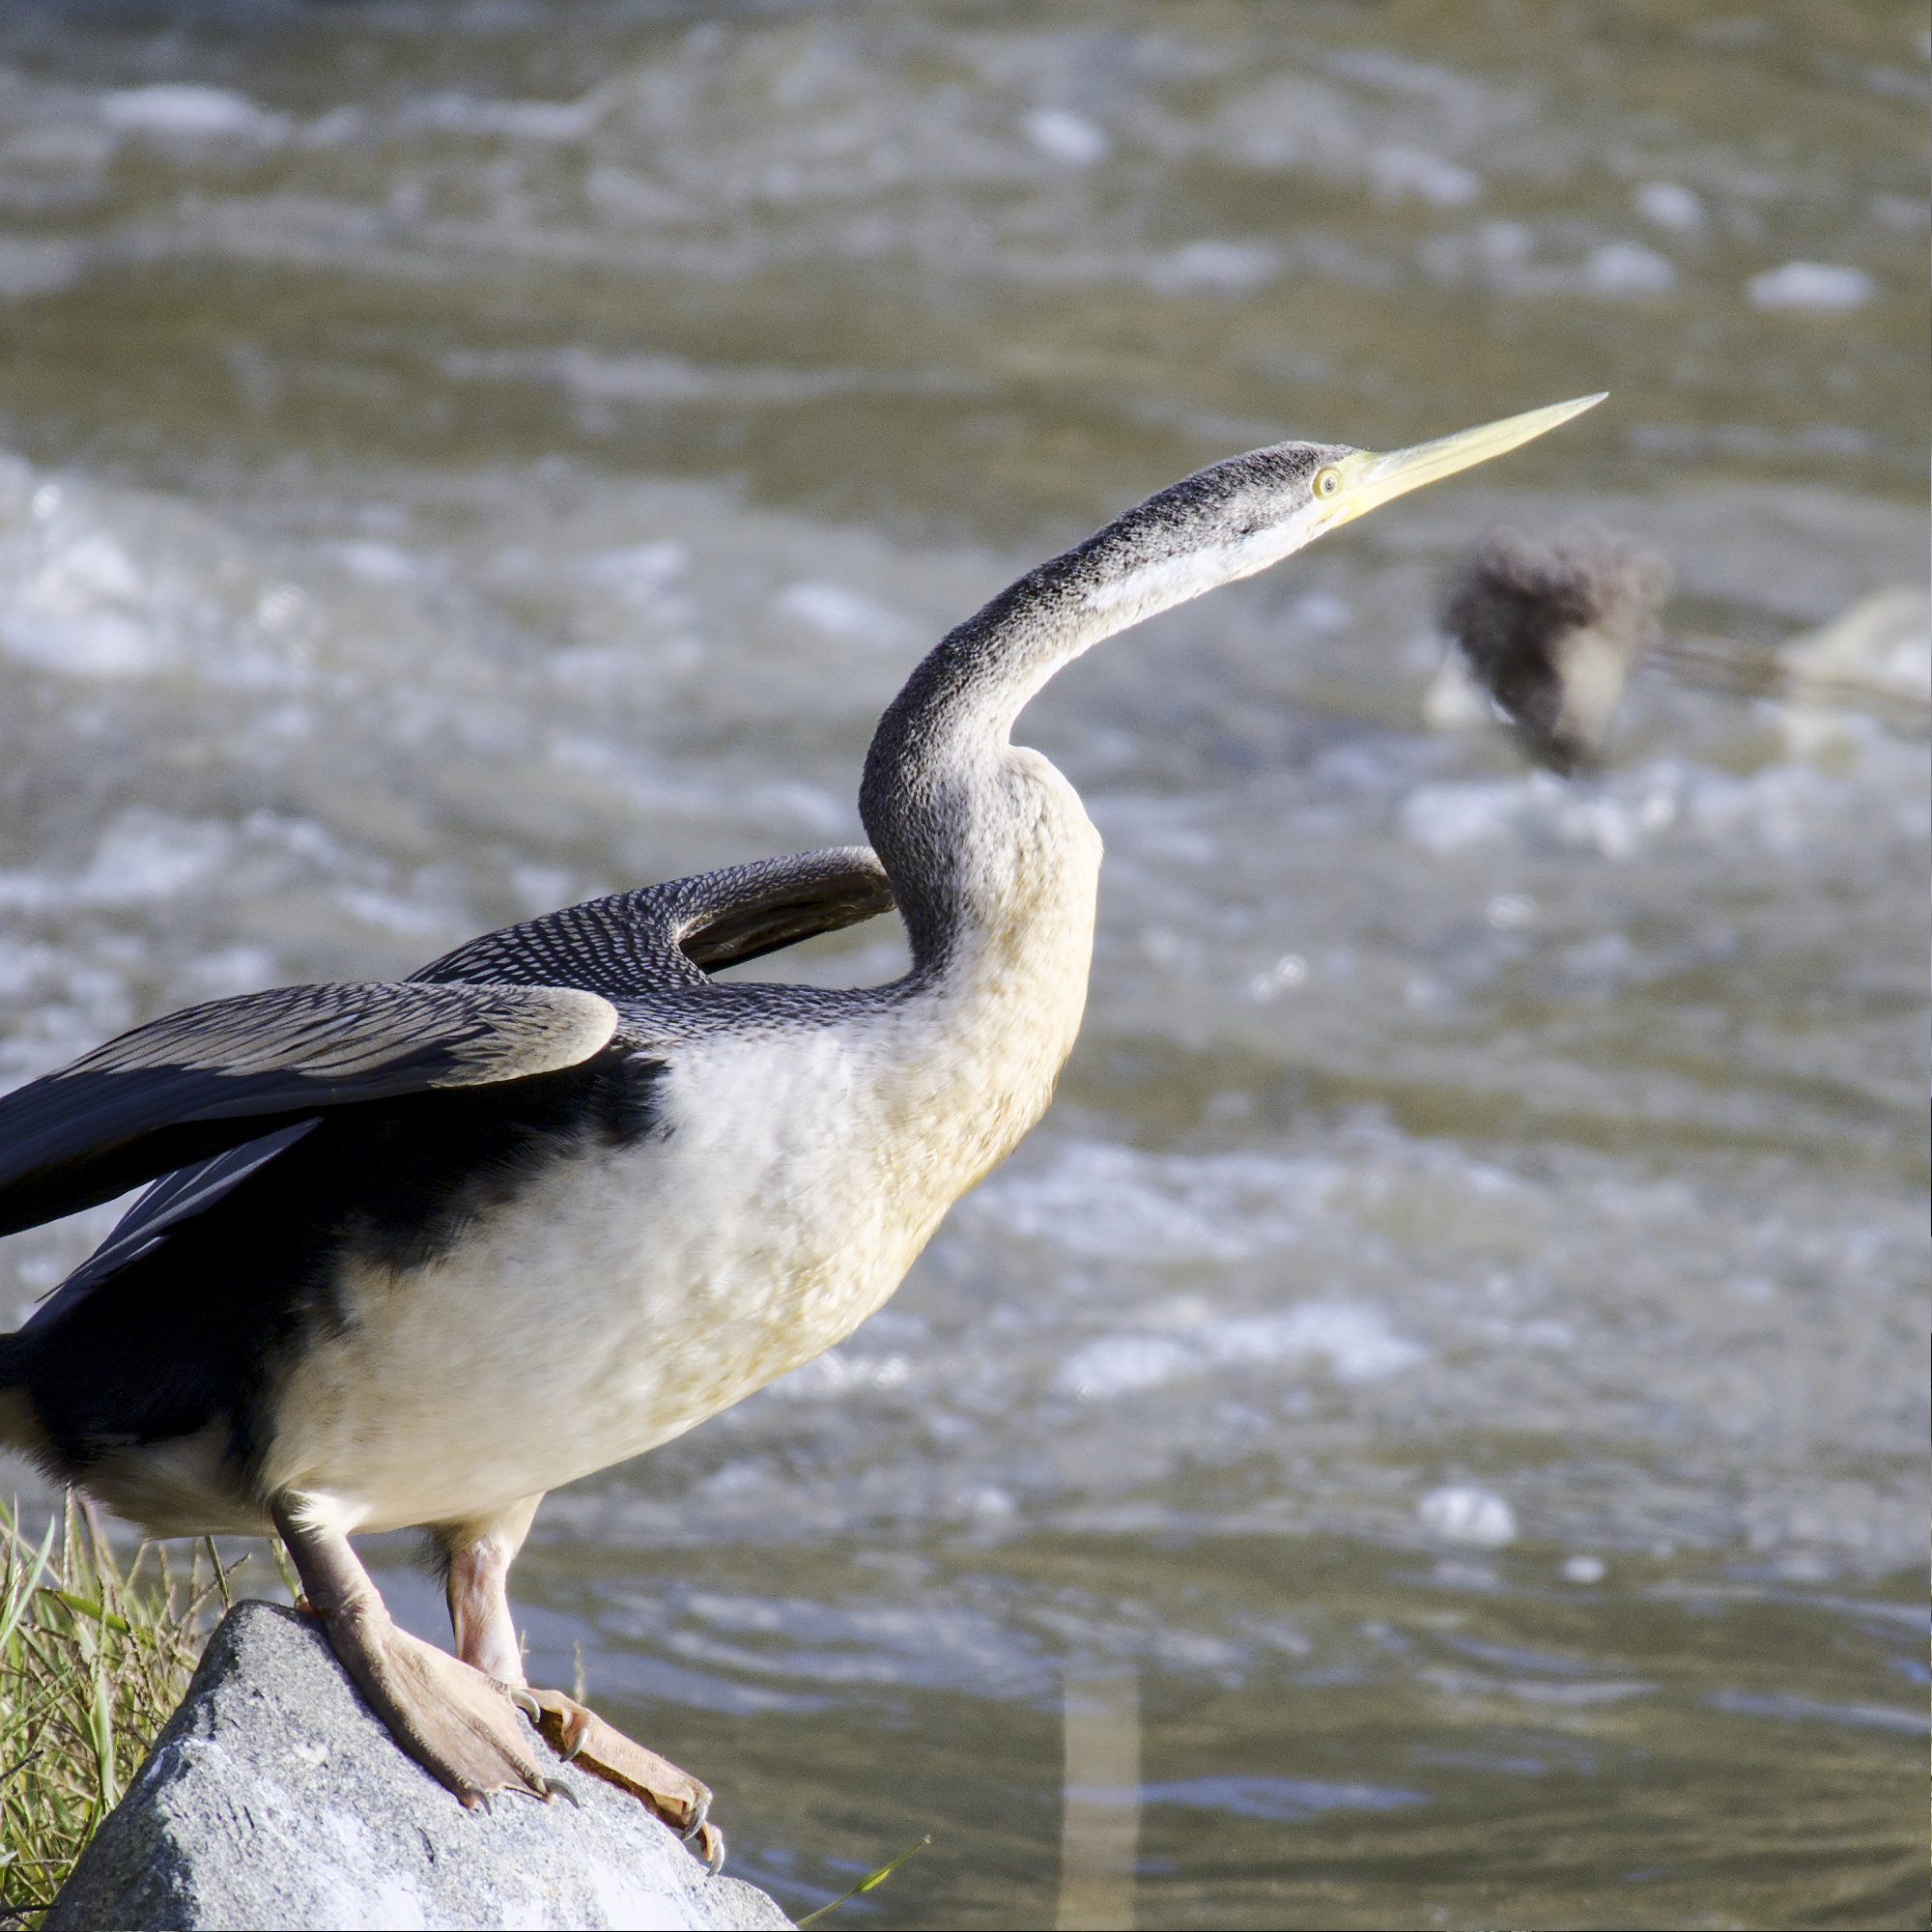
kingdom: Animalia
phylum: Chordata
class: Aves
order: Suliformes
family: Anhingidae
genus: Anhinga
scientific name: Anhinga novaehollandiae
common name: Australasian darter
